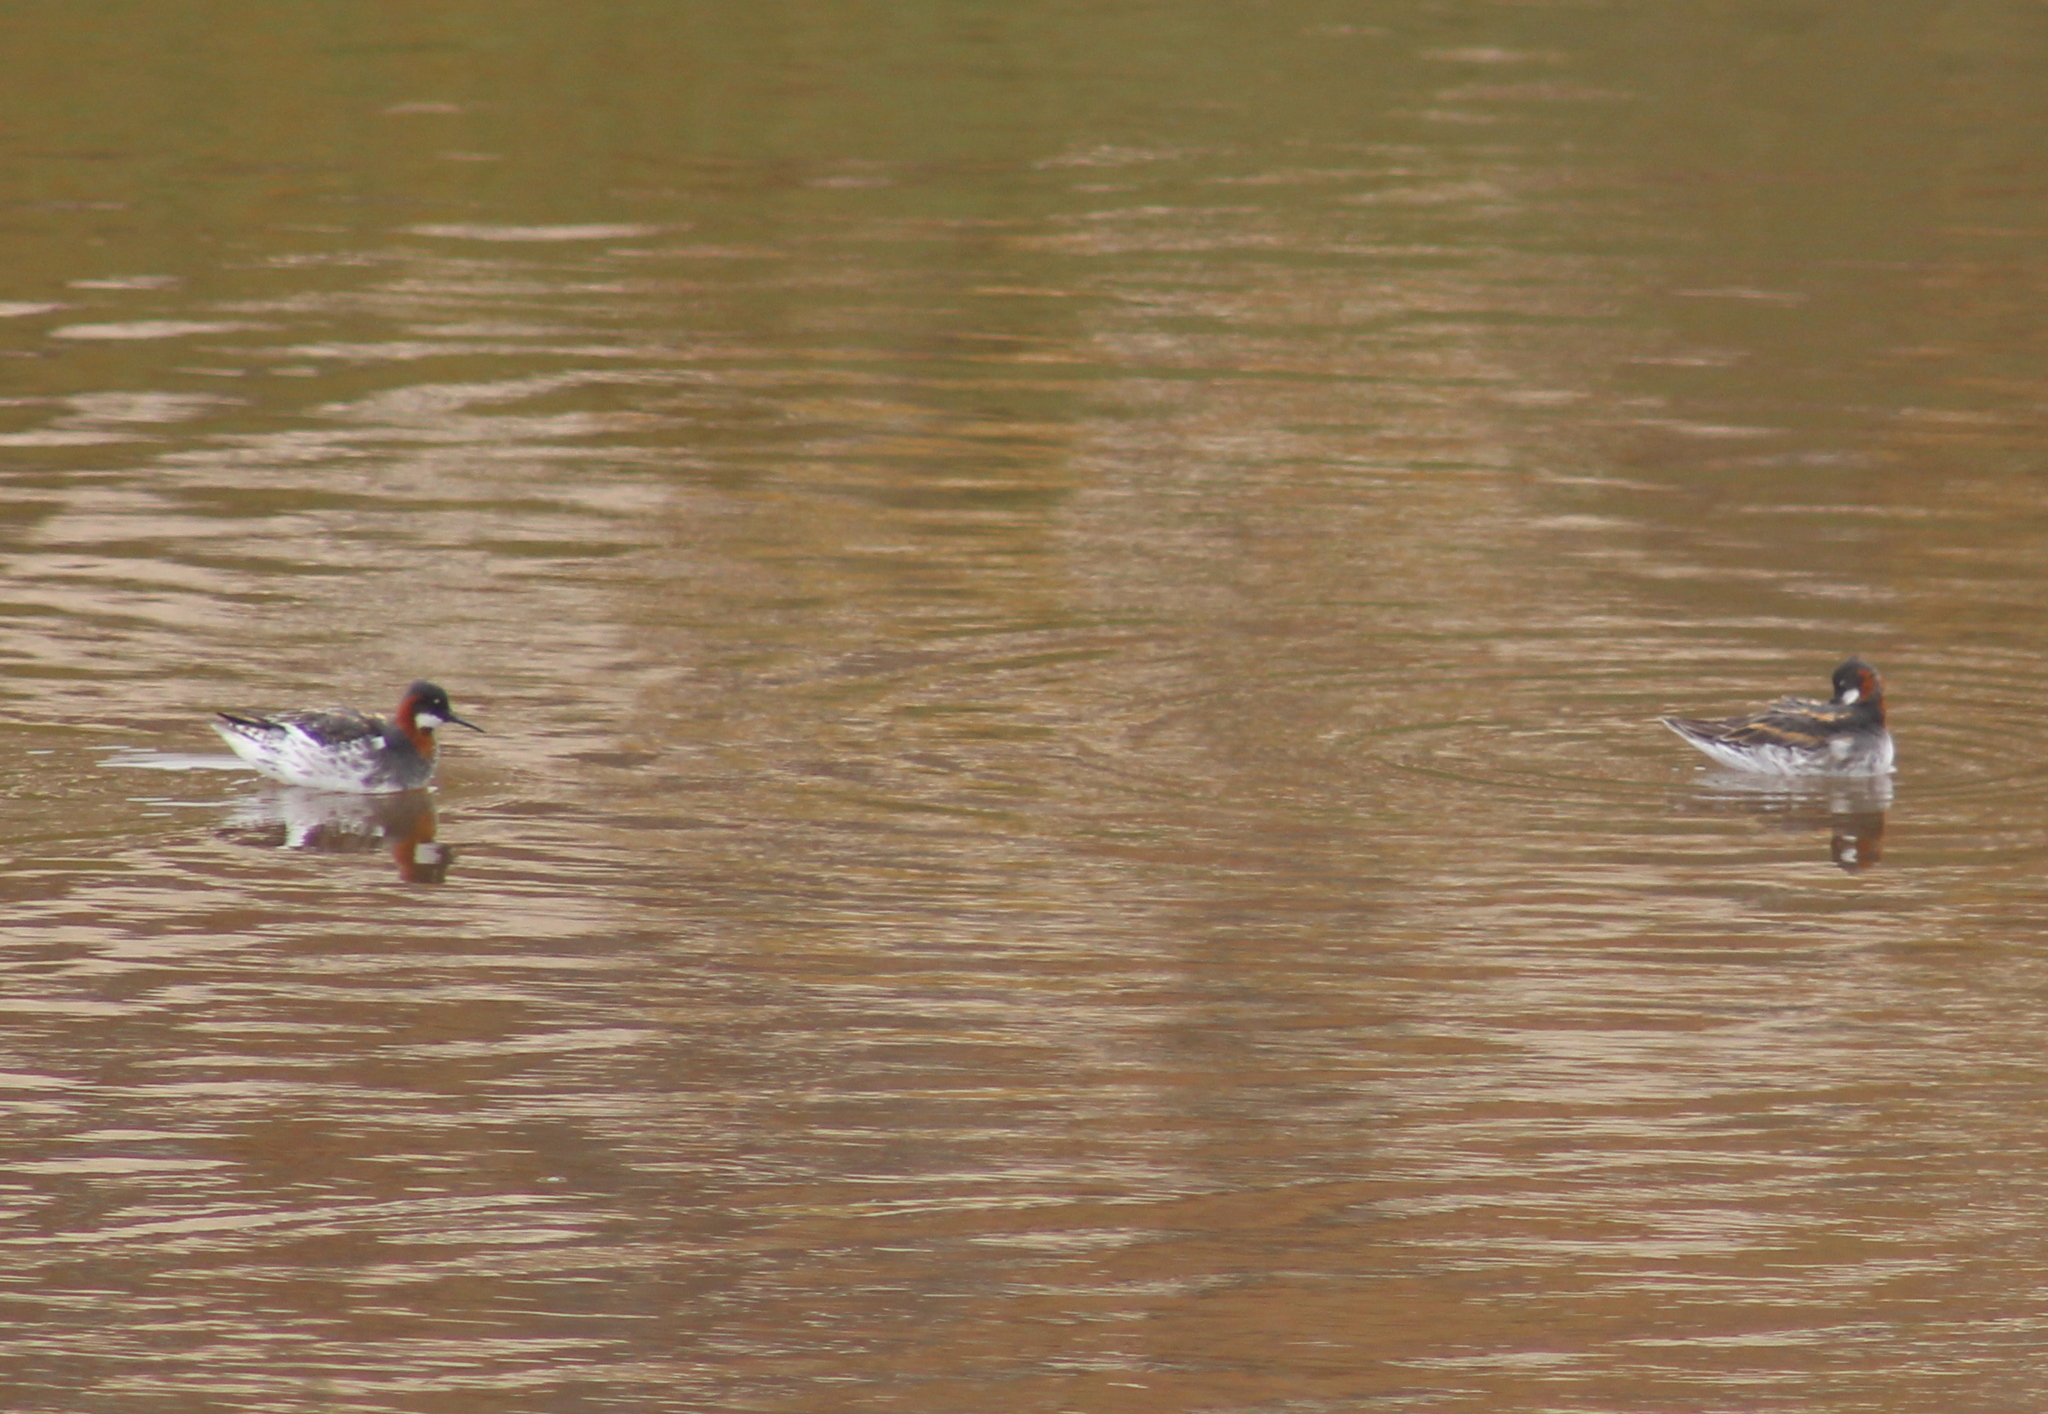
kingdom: Animalia
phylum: Chordata
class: Aves
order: Charadriiformes
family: Scolopacidae
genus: Phalaropus
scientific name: Phalaropus lobatus
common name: Red-necked phalarope
